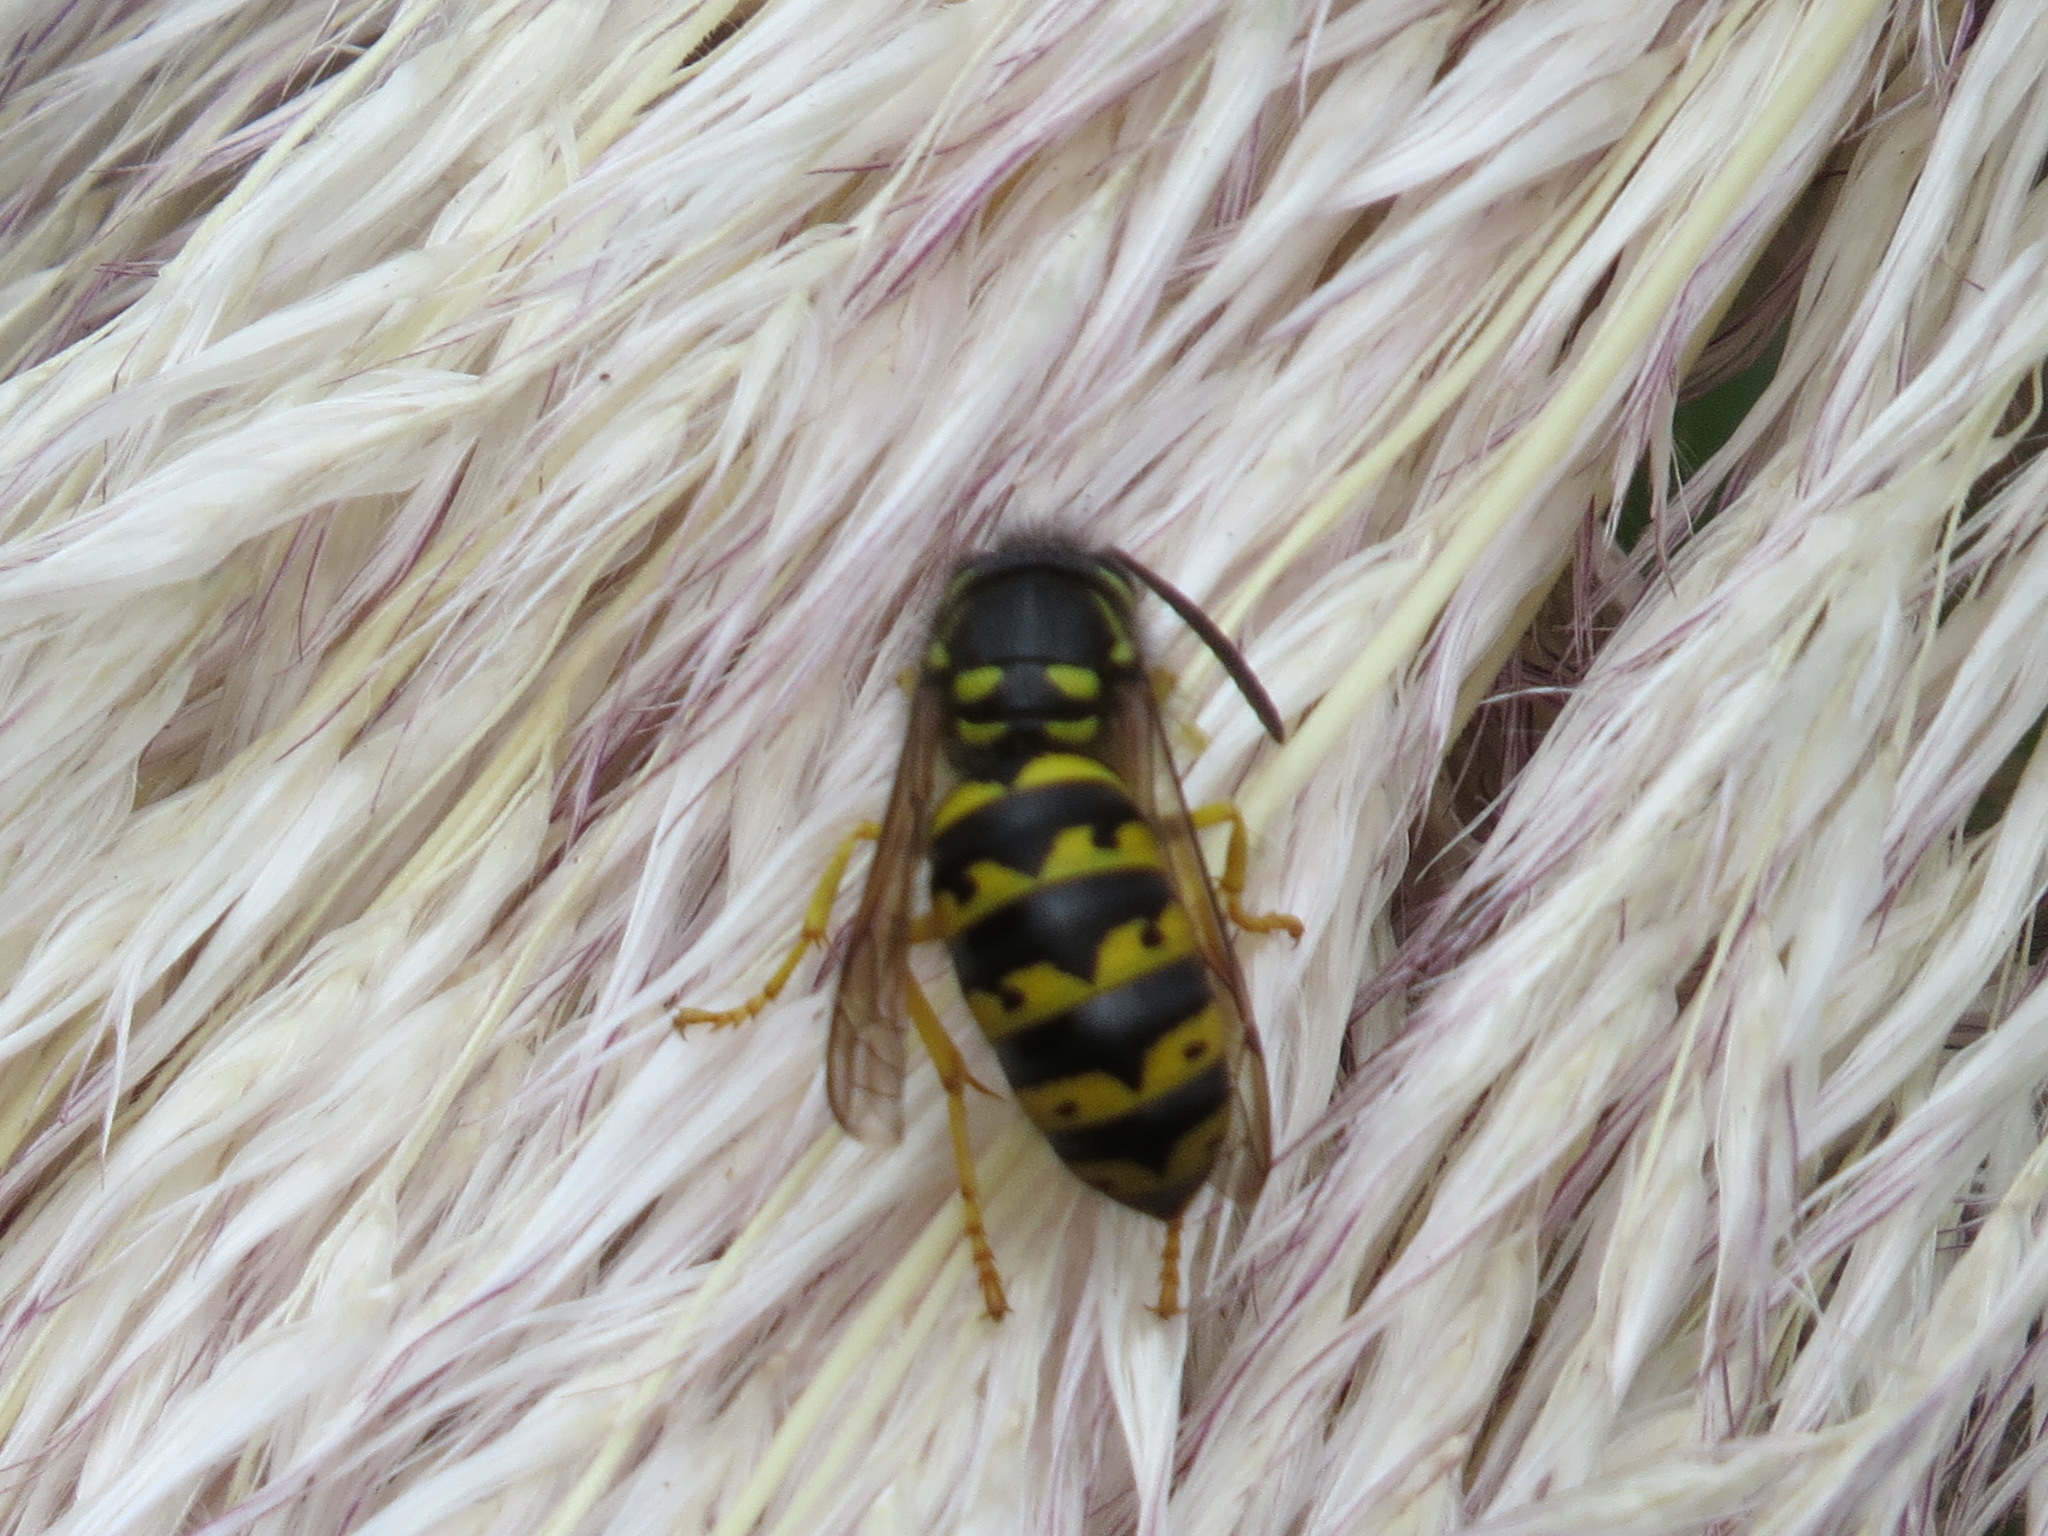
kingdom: Animalia
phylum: Arthropoda
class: Insecta
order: Hymenoptera
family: Vespidae
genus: Dolichovespula
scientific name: Dolichovespula arenaria
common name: Aerial yellowjacket
